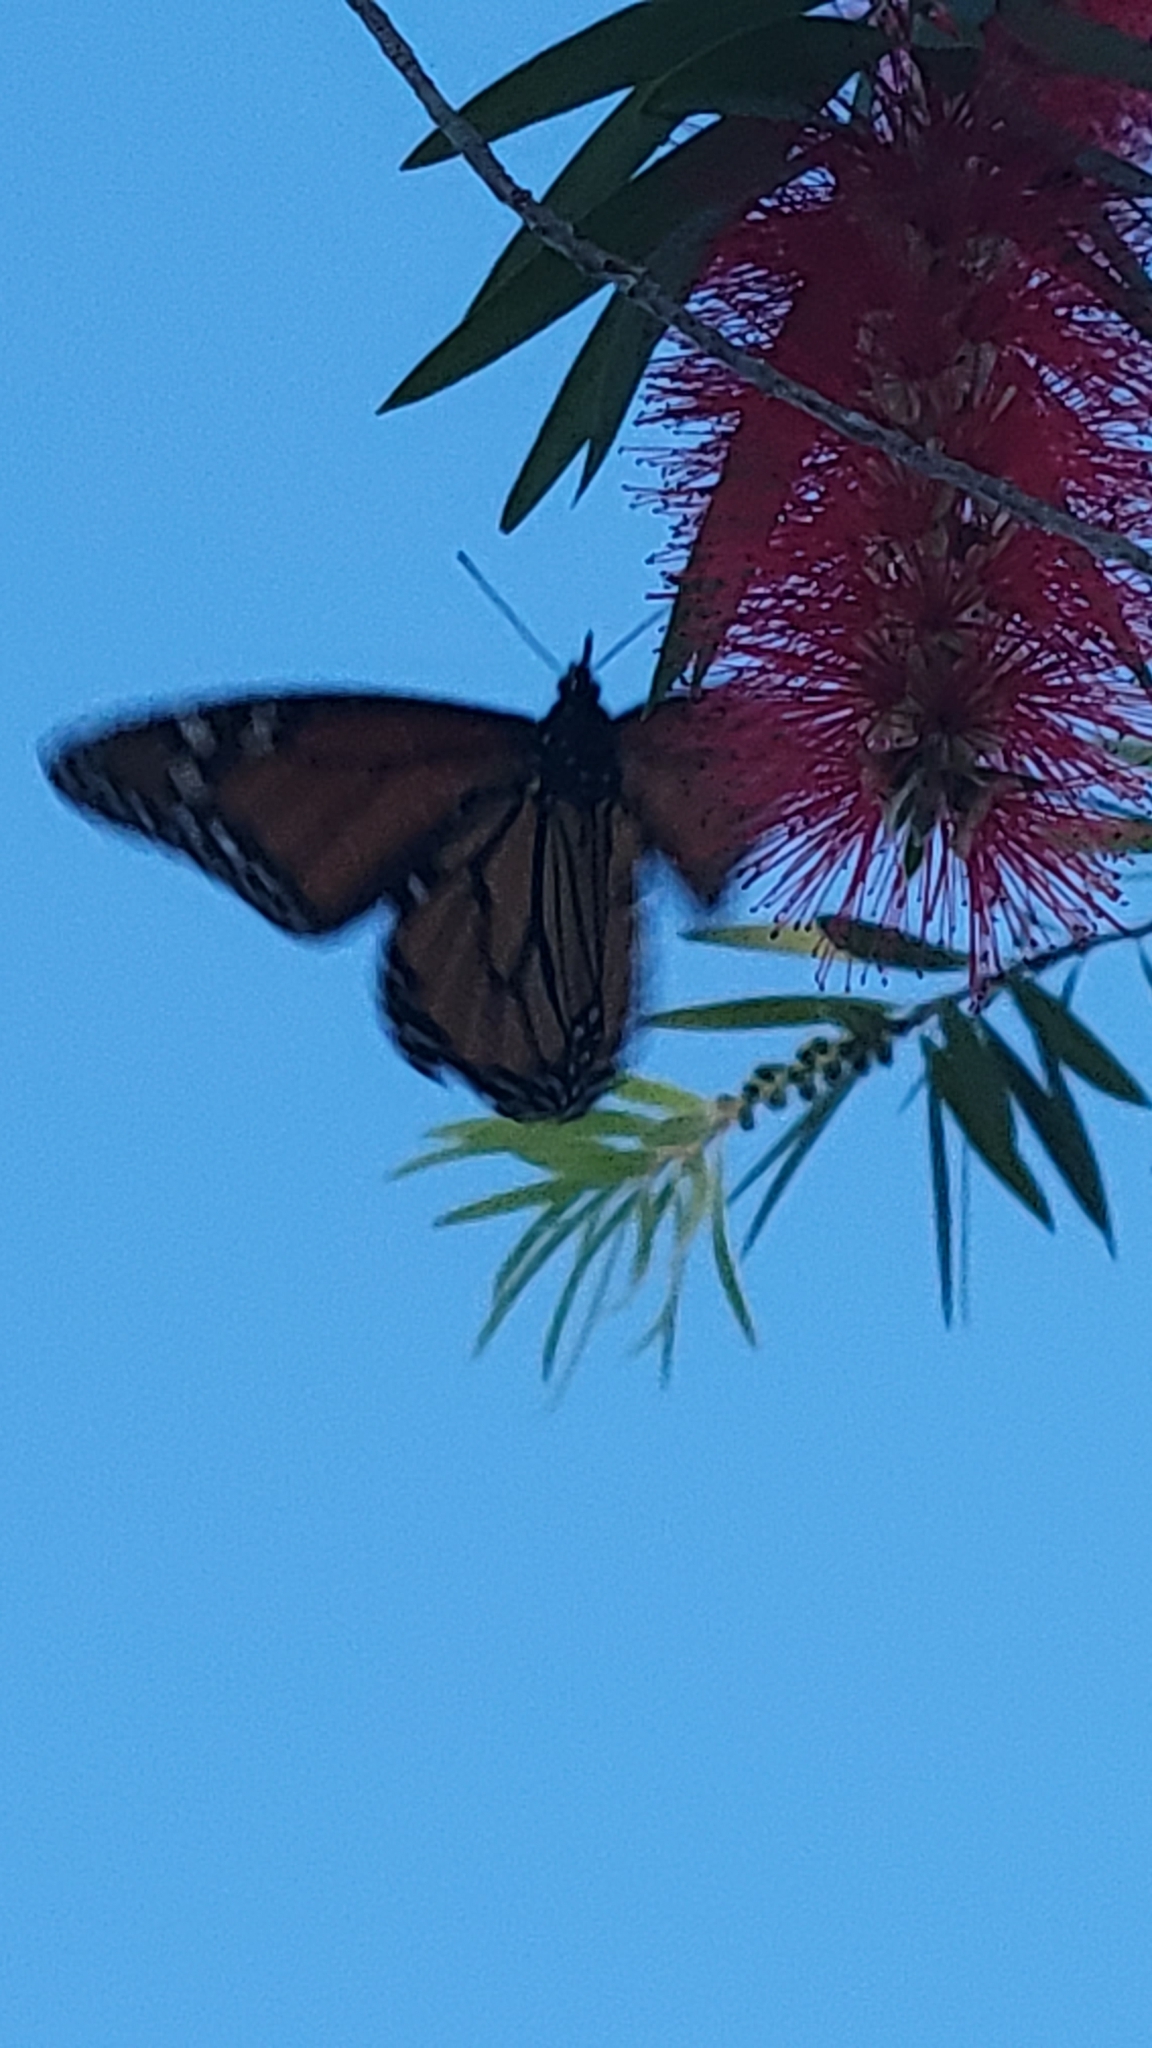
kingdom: Animalia
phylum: Arthropoda
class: Insecta
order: Lepidoptera
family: Nymphalidae
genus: Danaus
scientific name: Danaus plexippus
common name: Monarch
